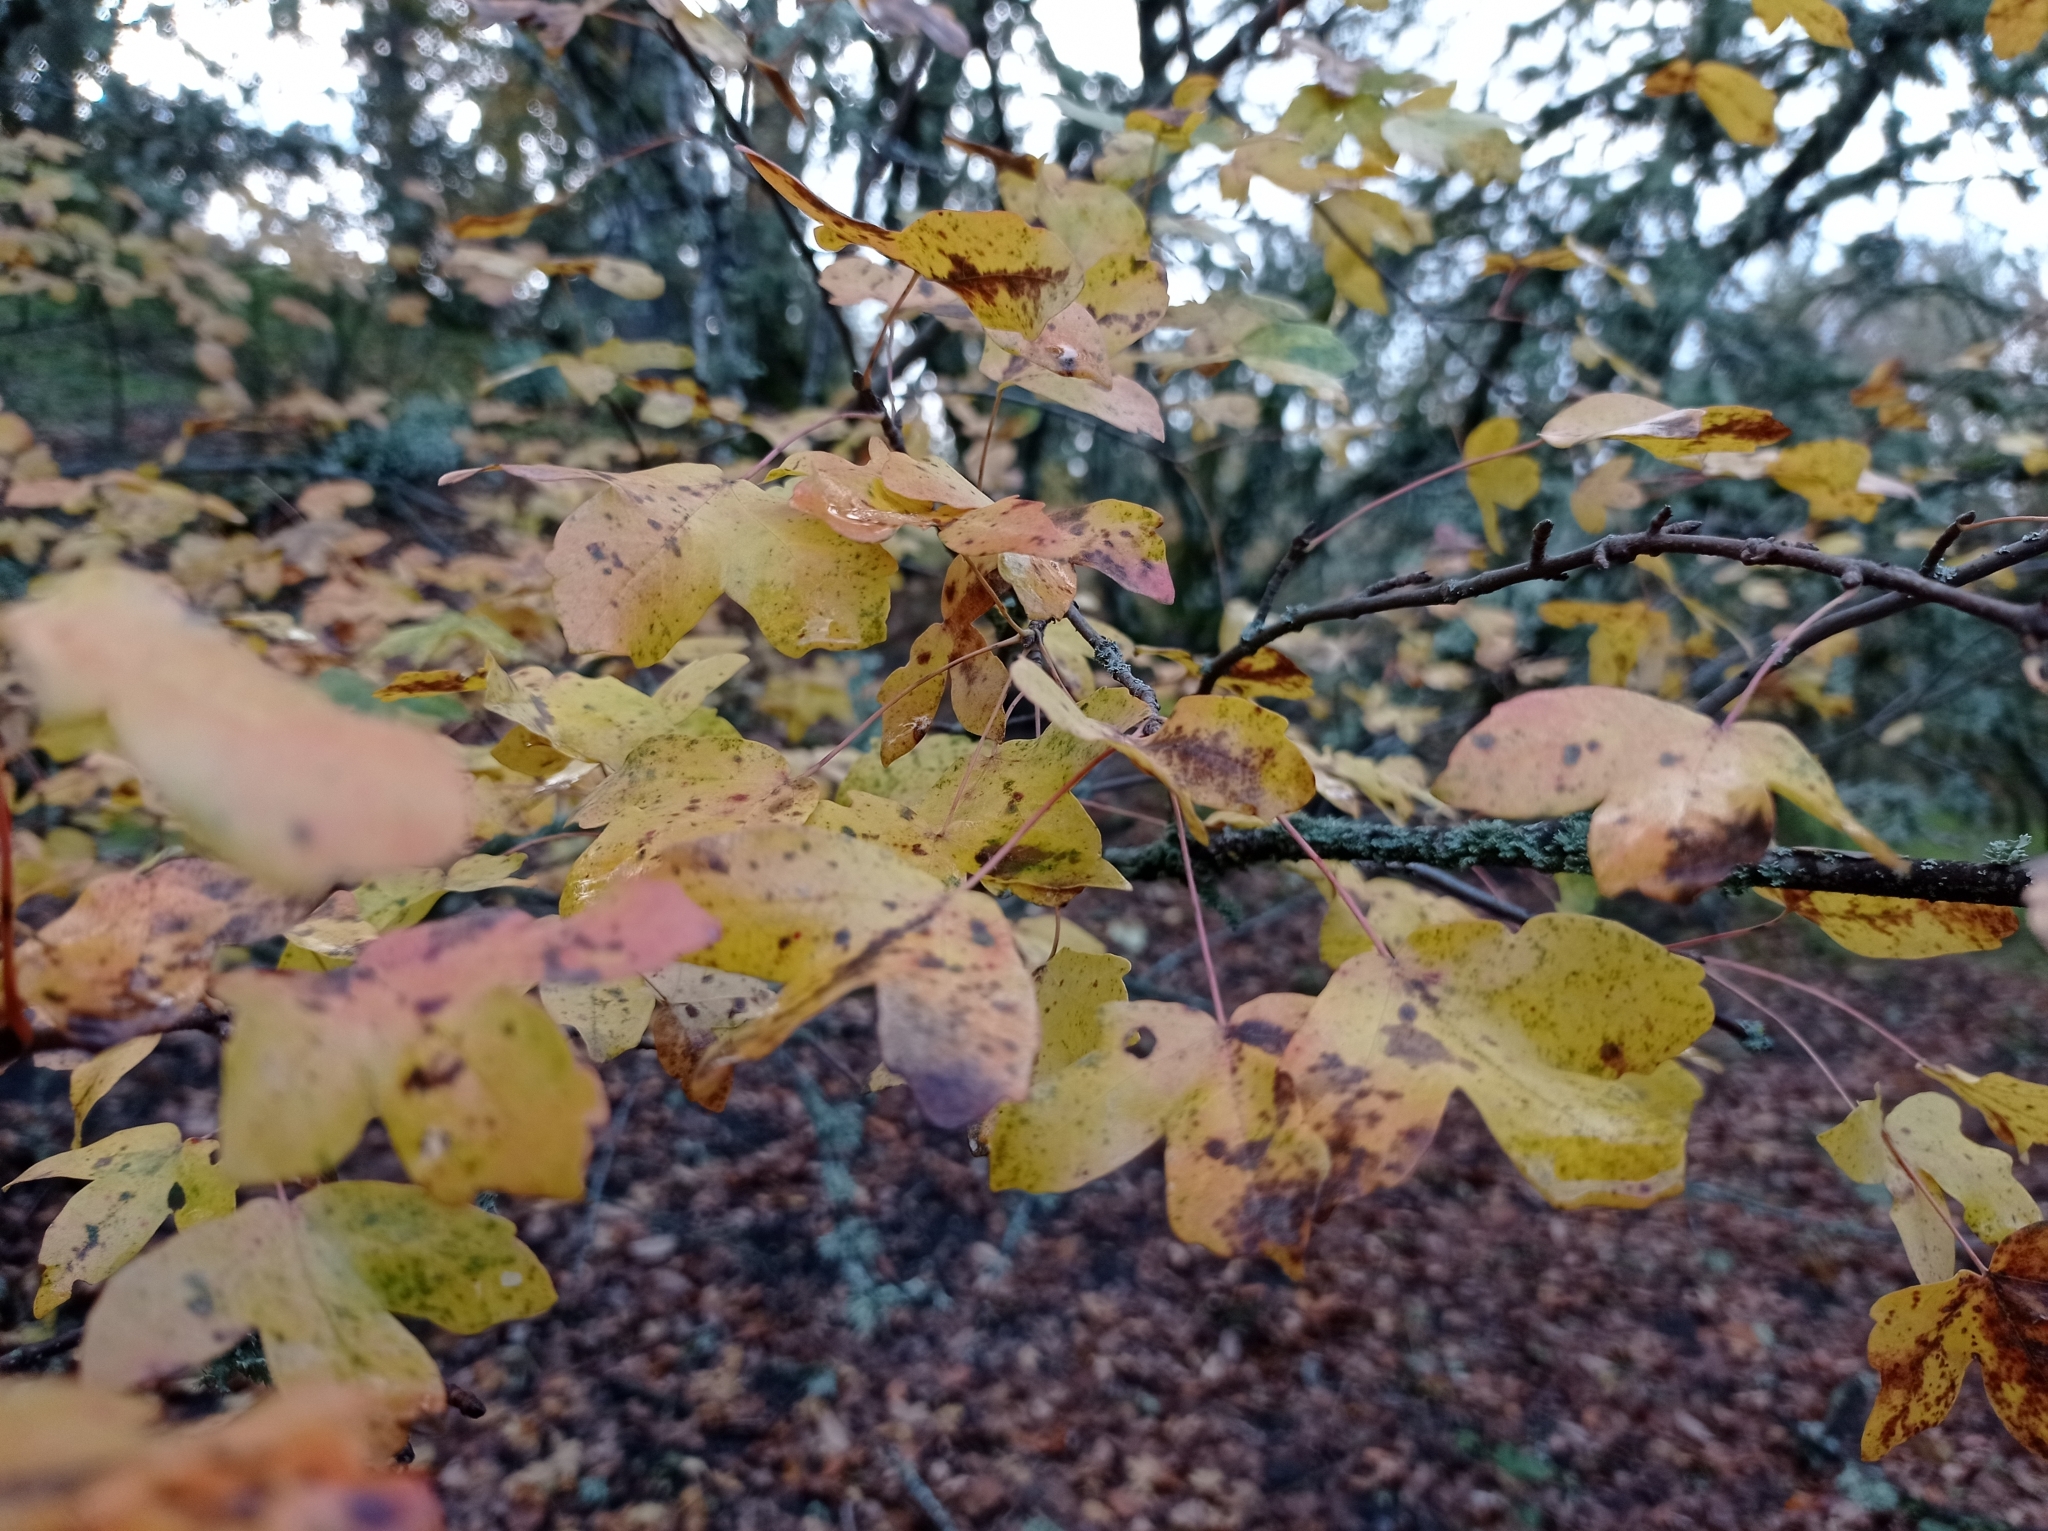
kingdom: Plantae
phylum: Tracheophyta
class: Magnoliopsida
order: Sapindales
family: Sapindaceae
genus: Acer
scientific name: Acer monspessulanum
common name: Montpellier maple
